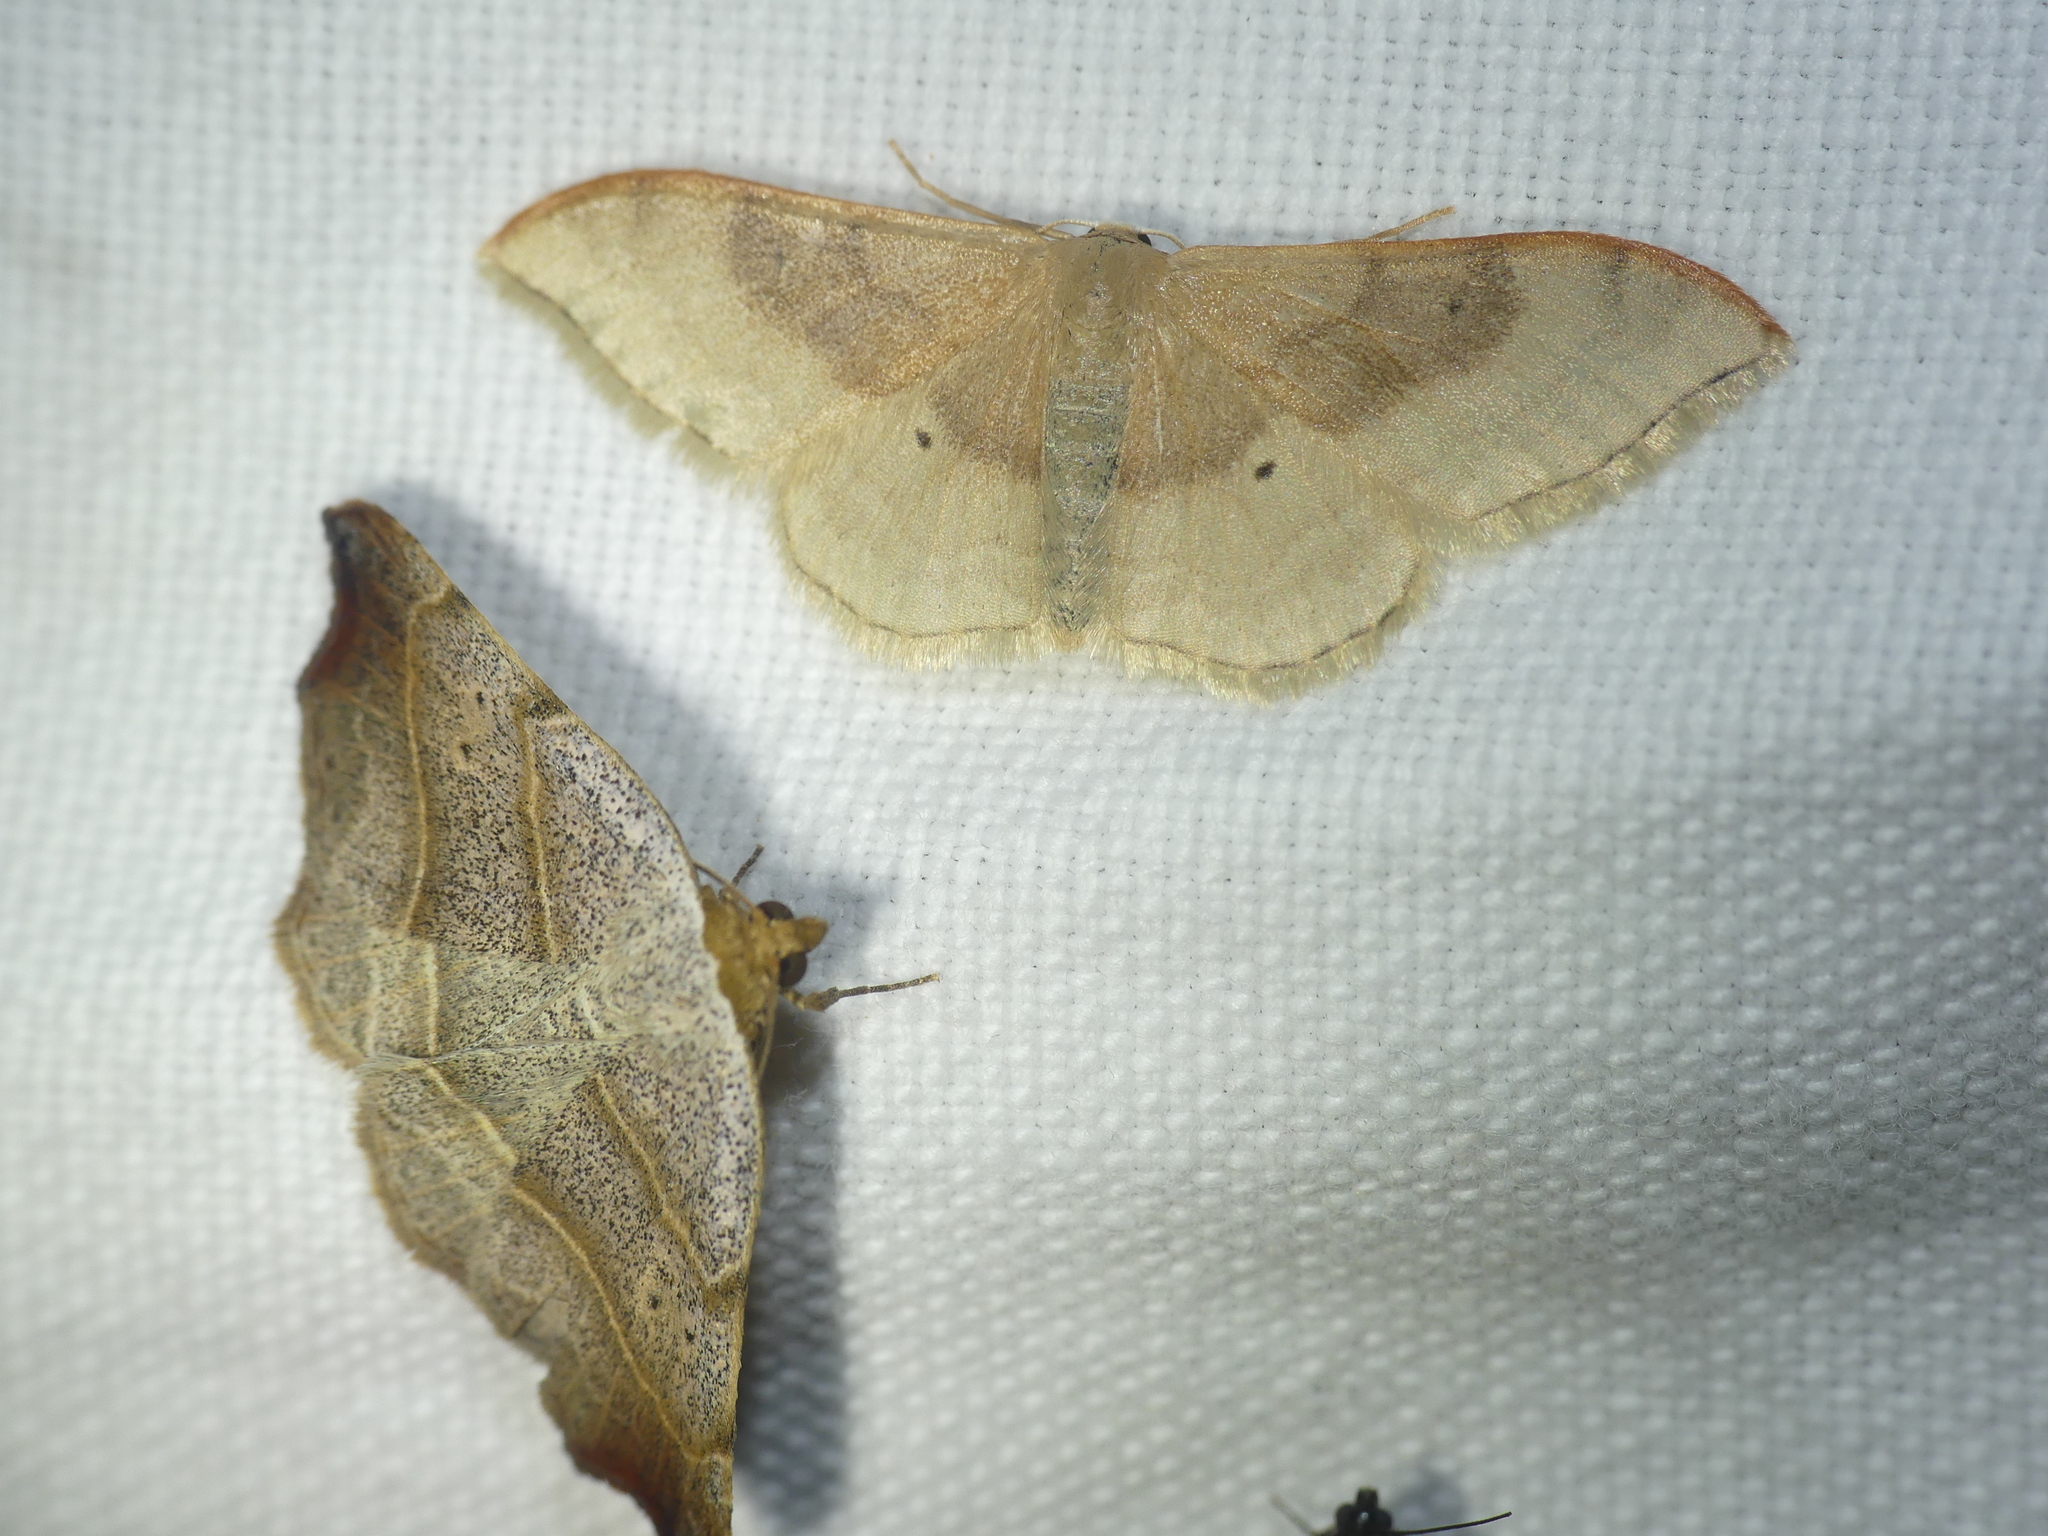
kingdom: Animalia
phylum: Arthropoda
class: Insecta
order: Lepidoptera
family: Erebidae
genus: Laspeyria
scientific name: Laspeyria flexula
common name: Beautiful hook-tip
